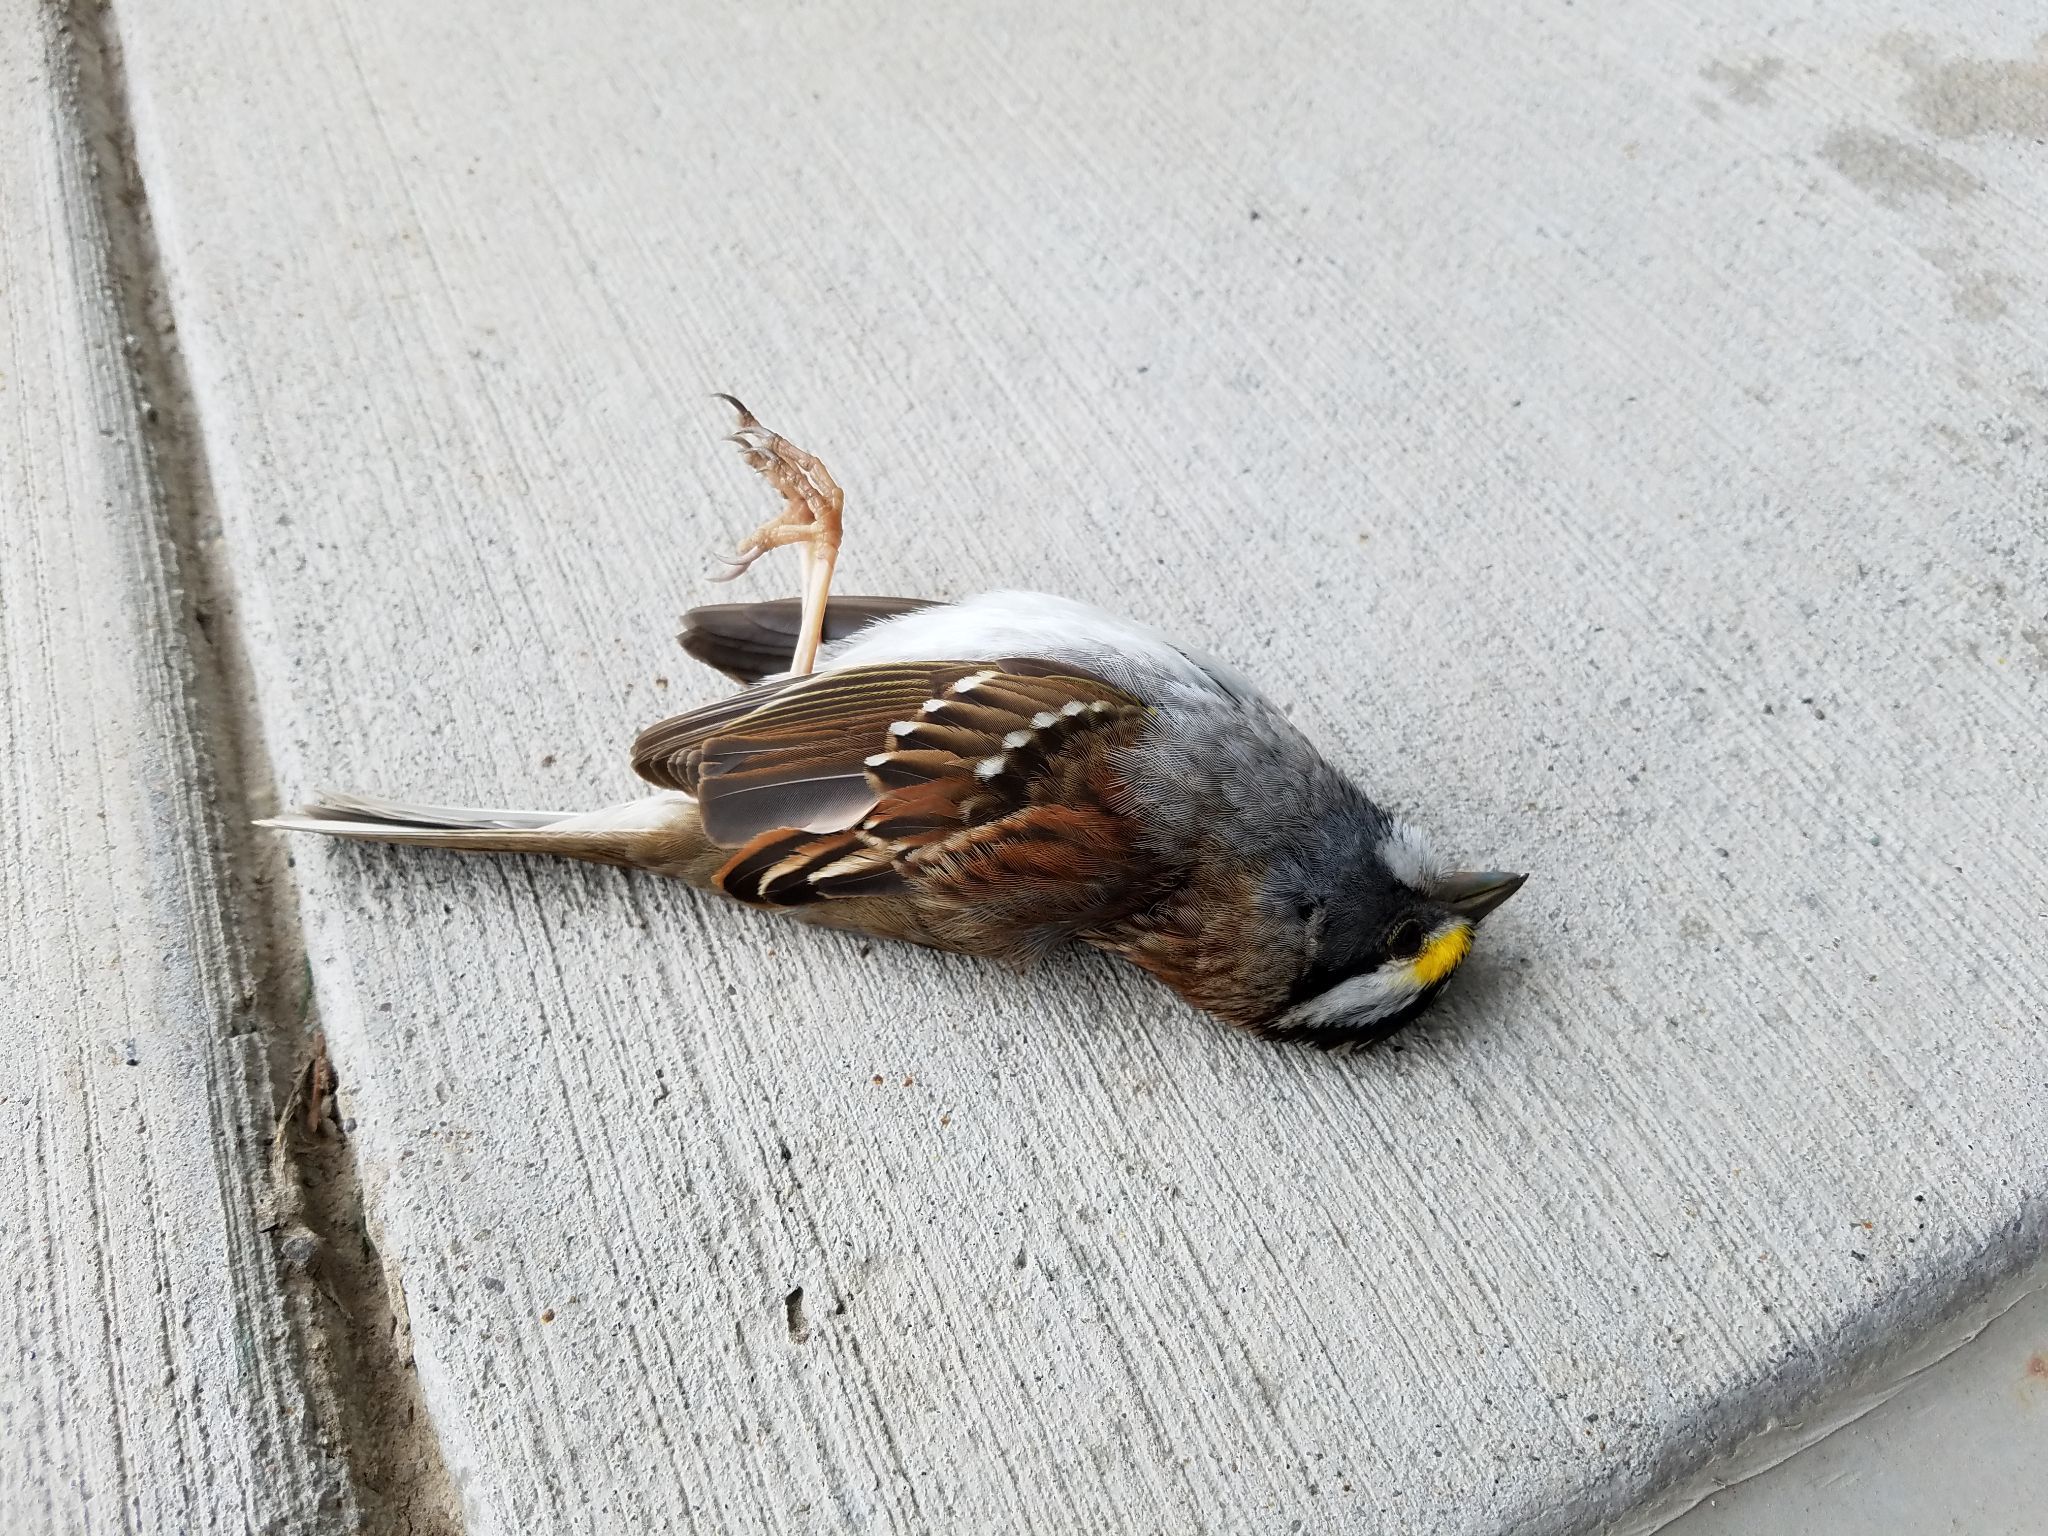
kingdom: Animalia
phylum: Chordata
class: Aves
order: Passeriformes
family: Passerellidae
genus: Zonotrichia
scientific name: Zonotrichia albicollis
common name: White-throated sparrow
